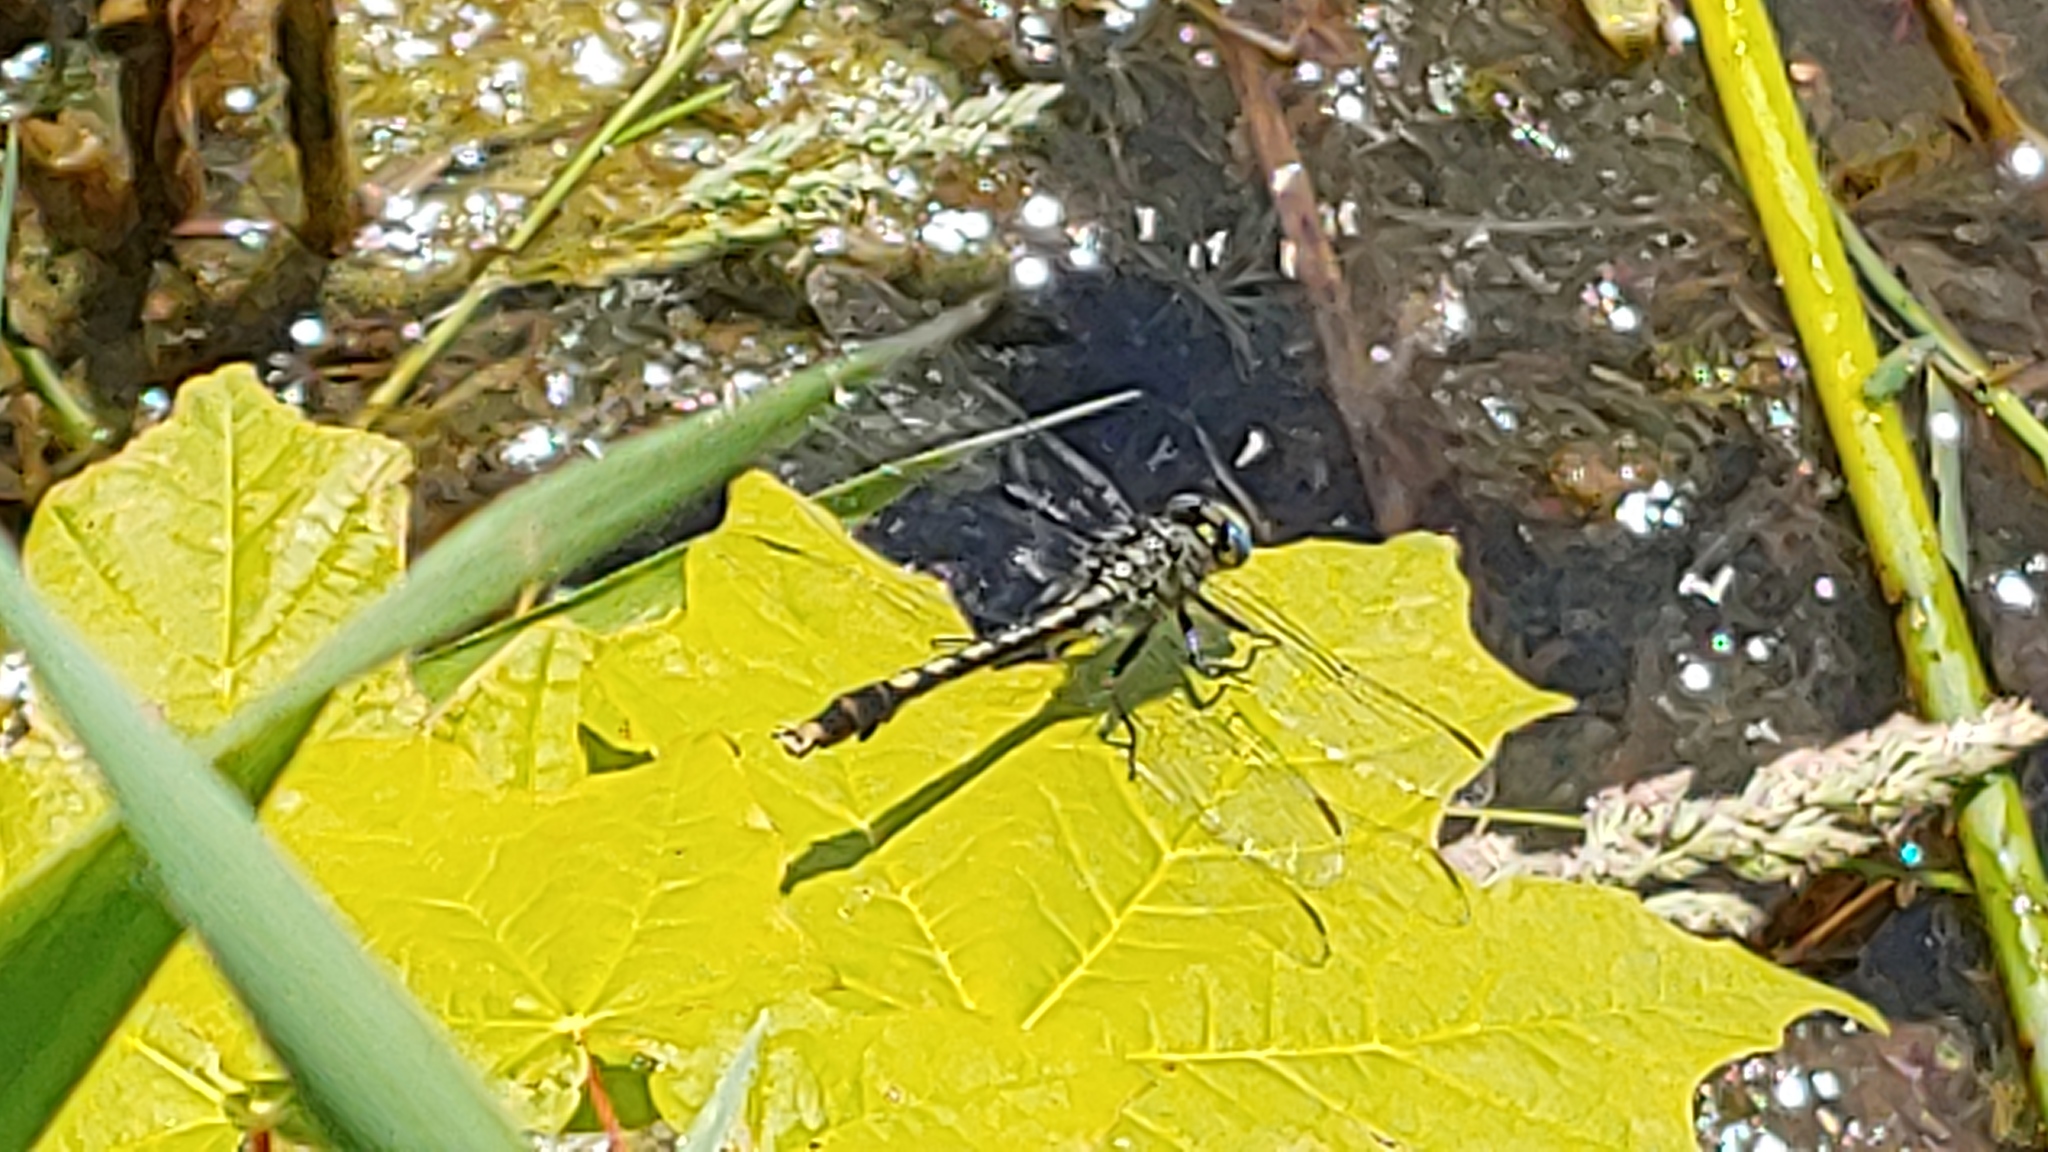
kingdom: Animalia
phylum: Arthropoda
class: Insecta
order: Odonata
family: Gomphidae
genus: Arigomphus
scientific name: Arigomphus villosipes
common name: Unicorn clubtail
